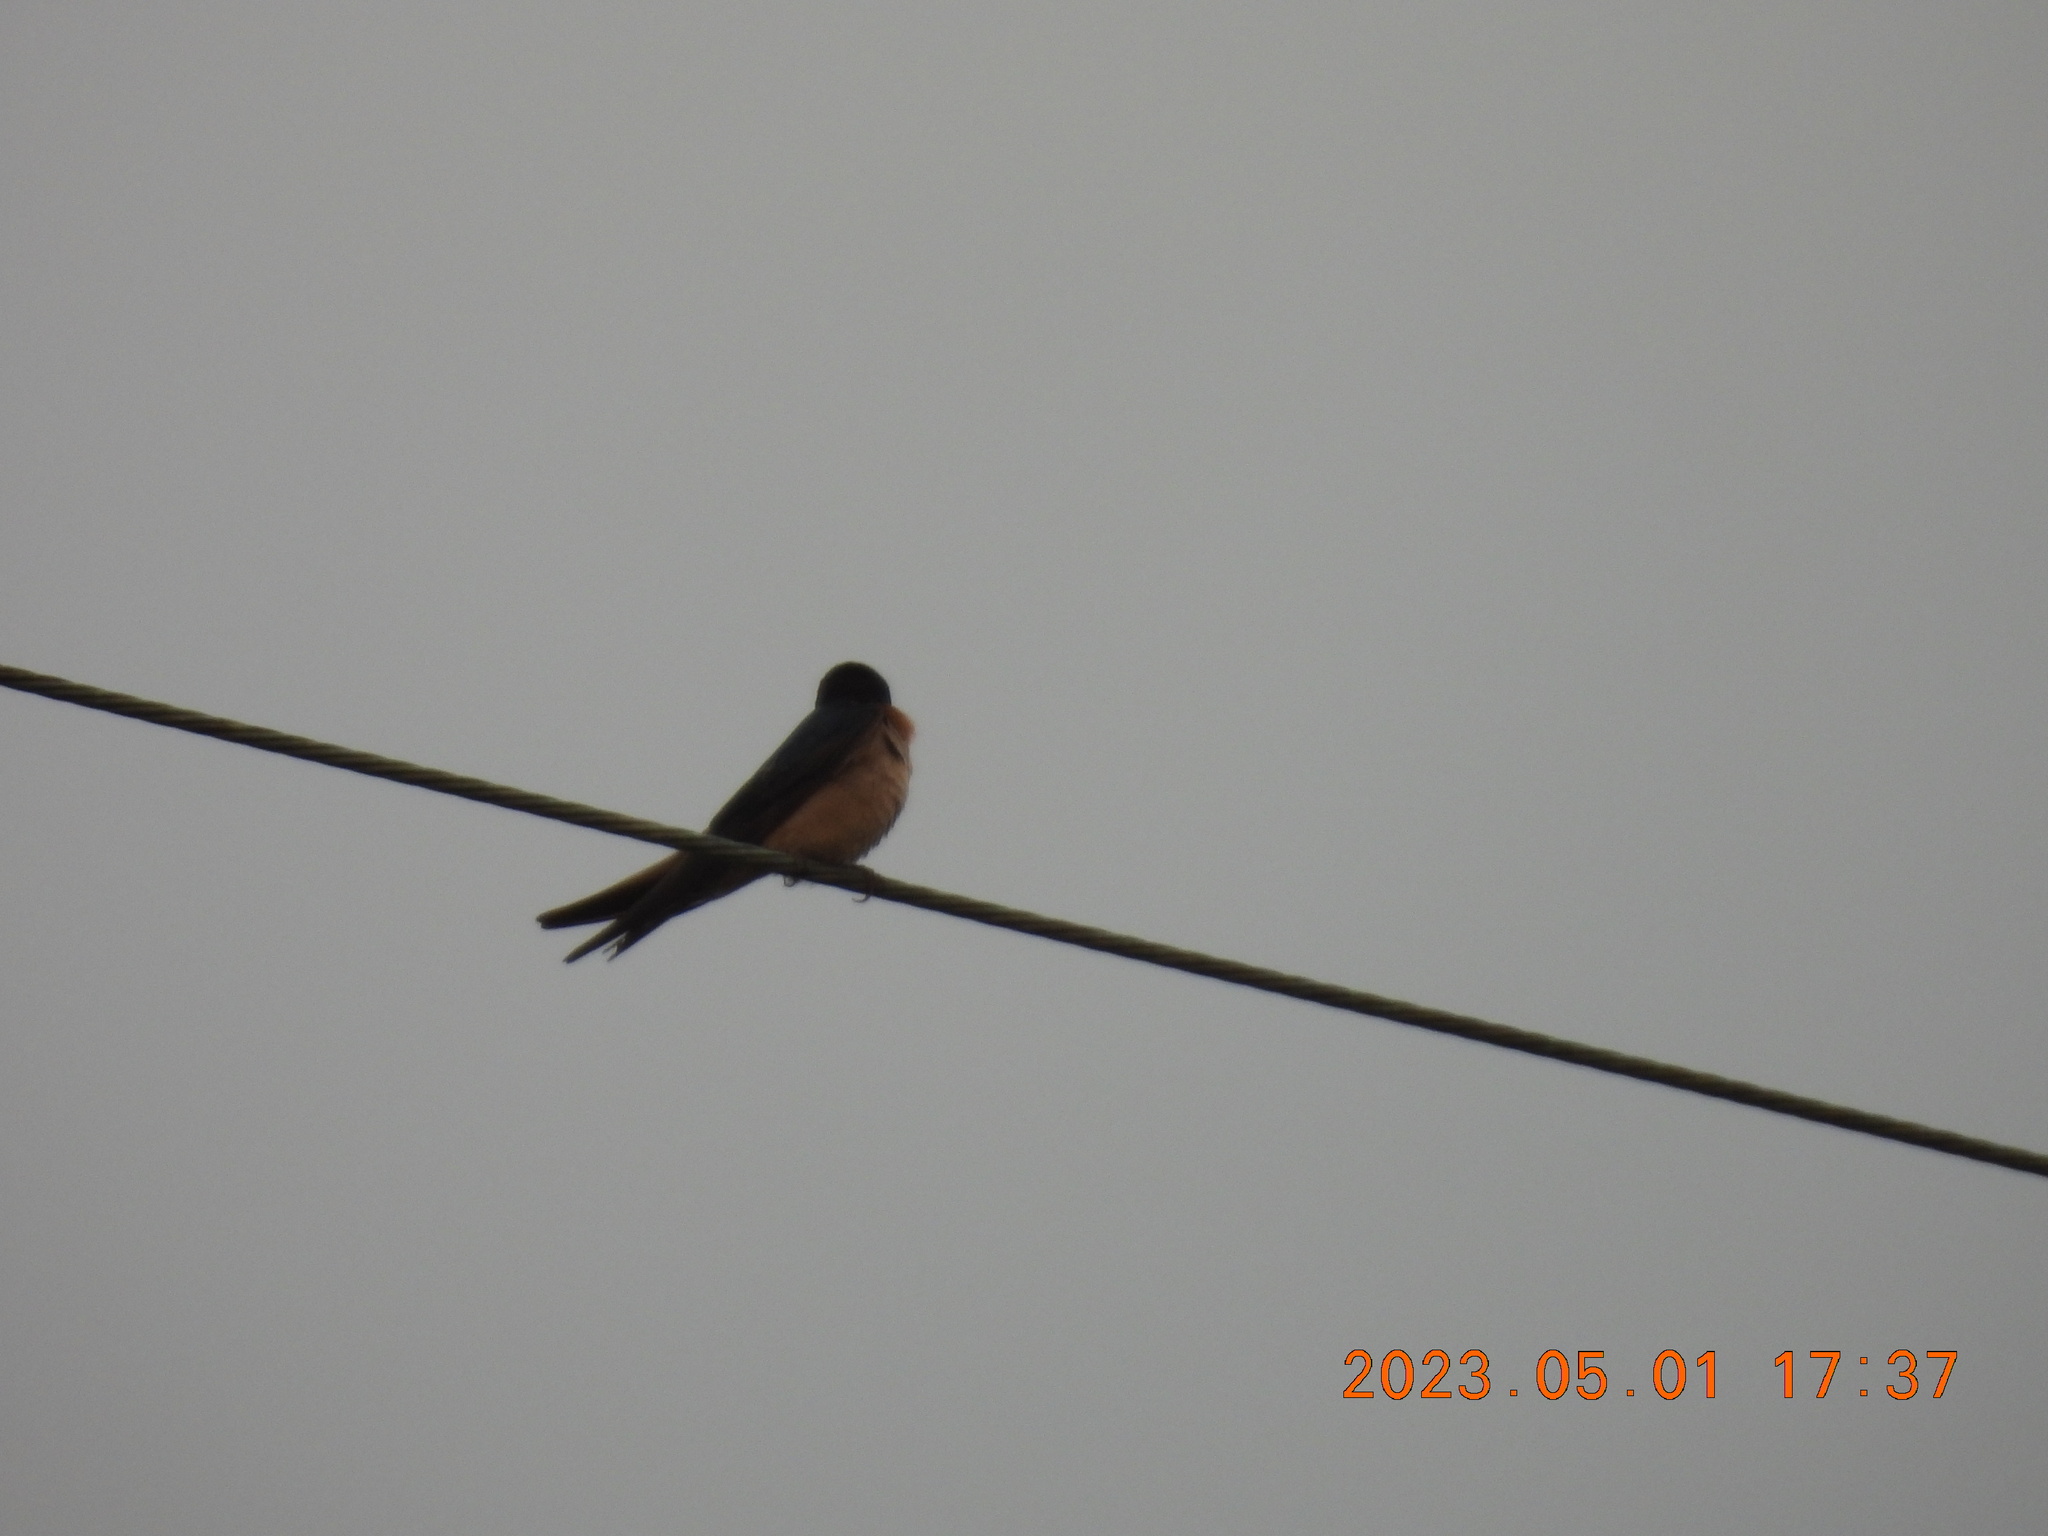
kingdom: Animalia
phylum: Chordata
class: Aves
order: Passeriformes
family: Hirundinidae
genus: Hirundo
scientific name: Hirundo tahitica
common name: Pacific swallow
